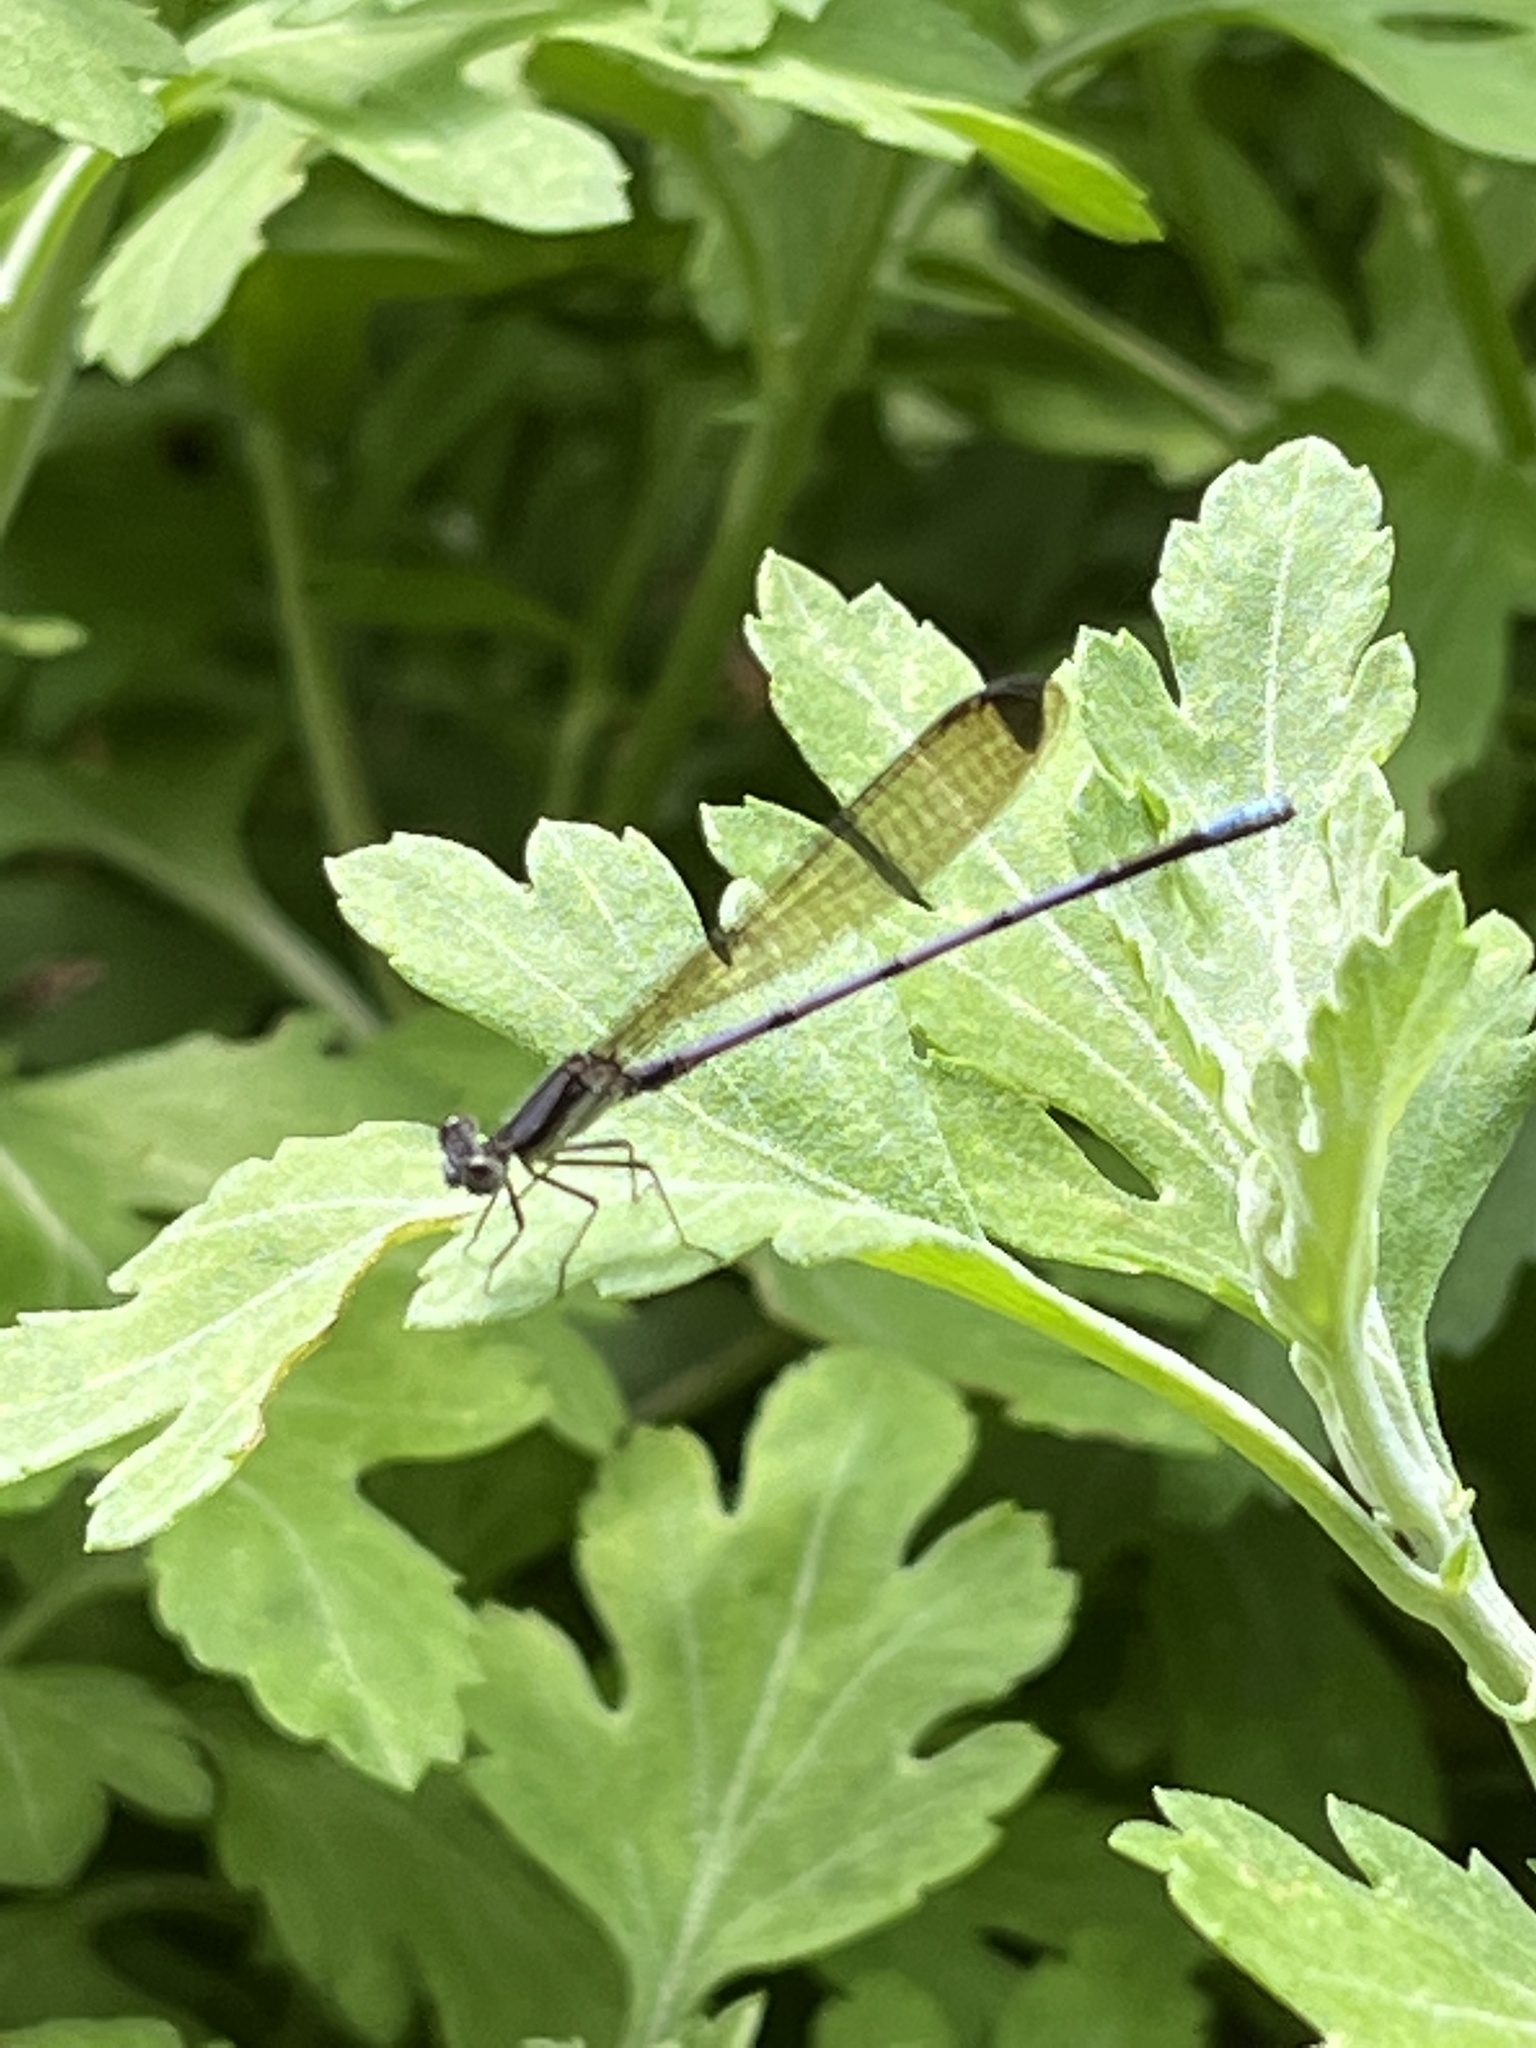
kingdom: Animalia
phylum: Arthropoda
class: Insecta
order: Odonata
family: Coenagrionidae
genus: Argia
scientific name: Argia fumipennis
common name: Variable dancer
